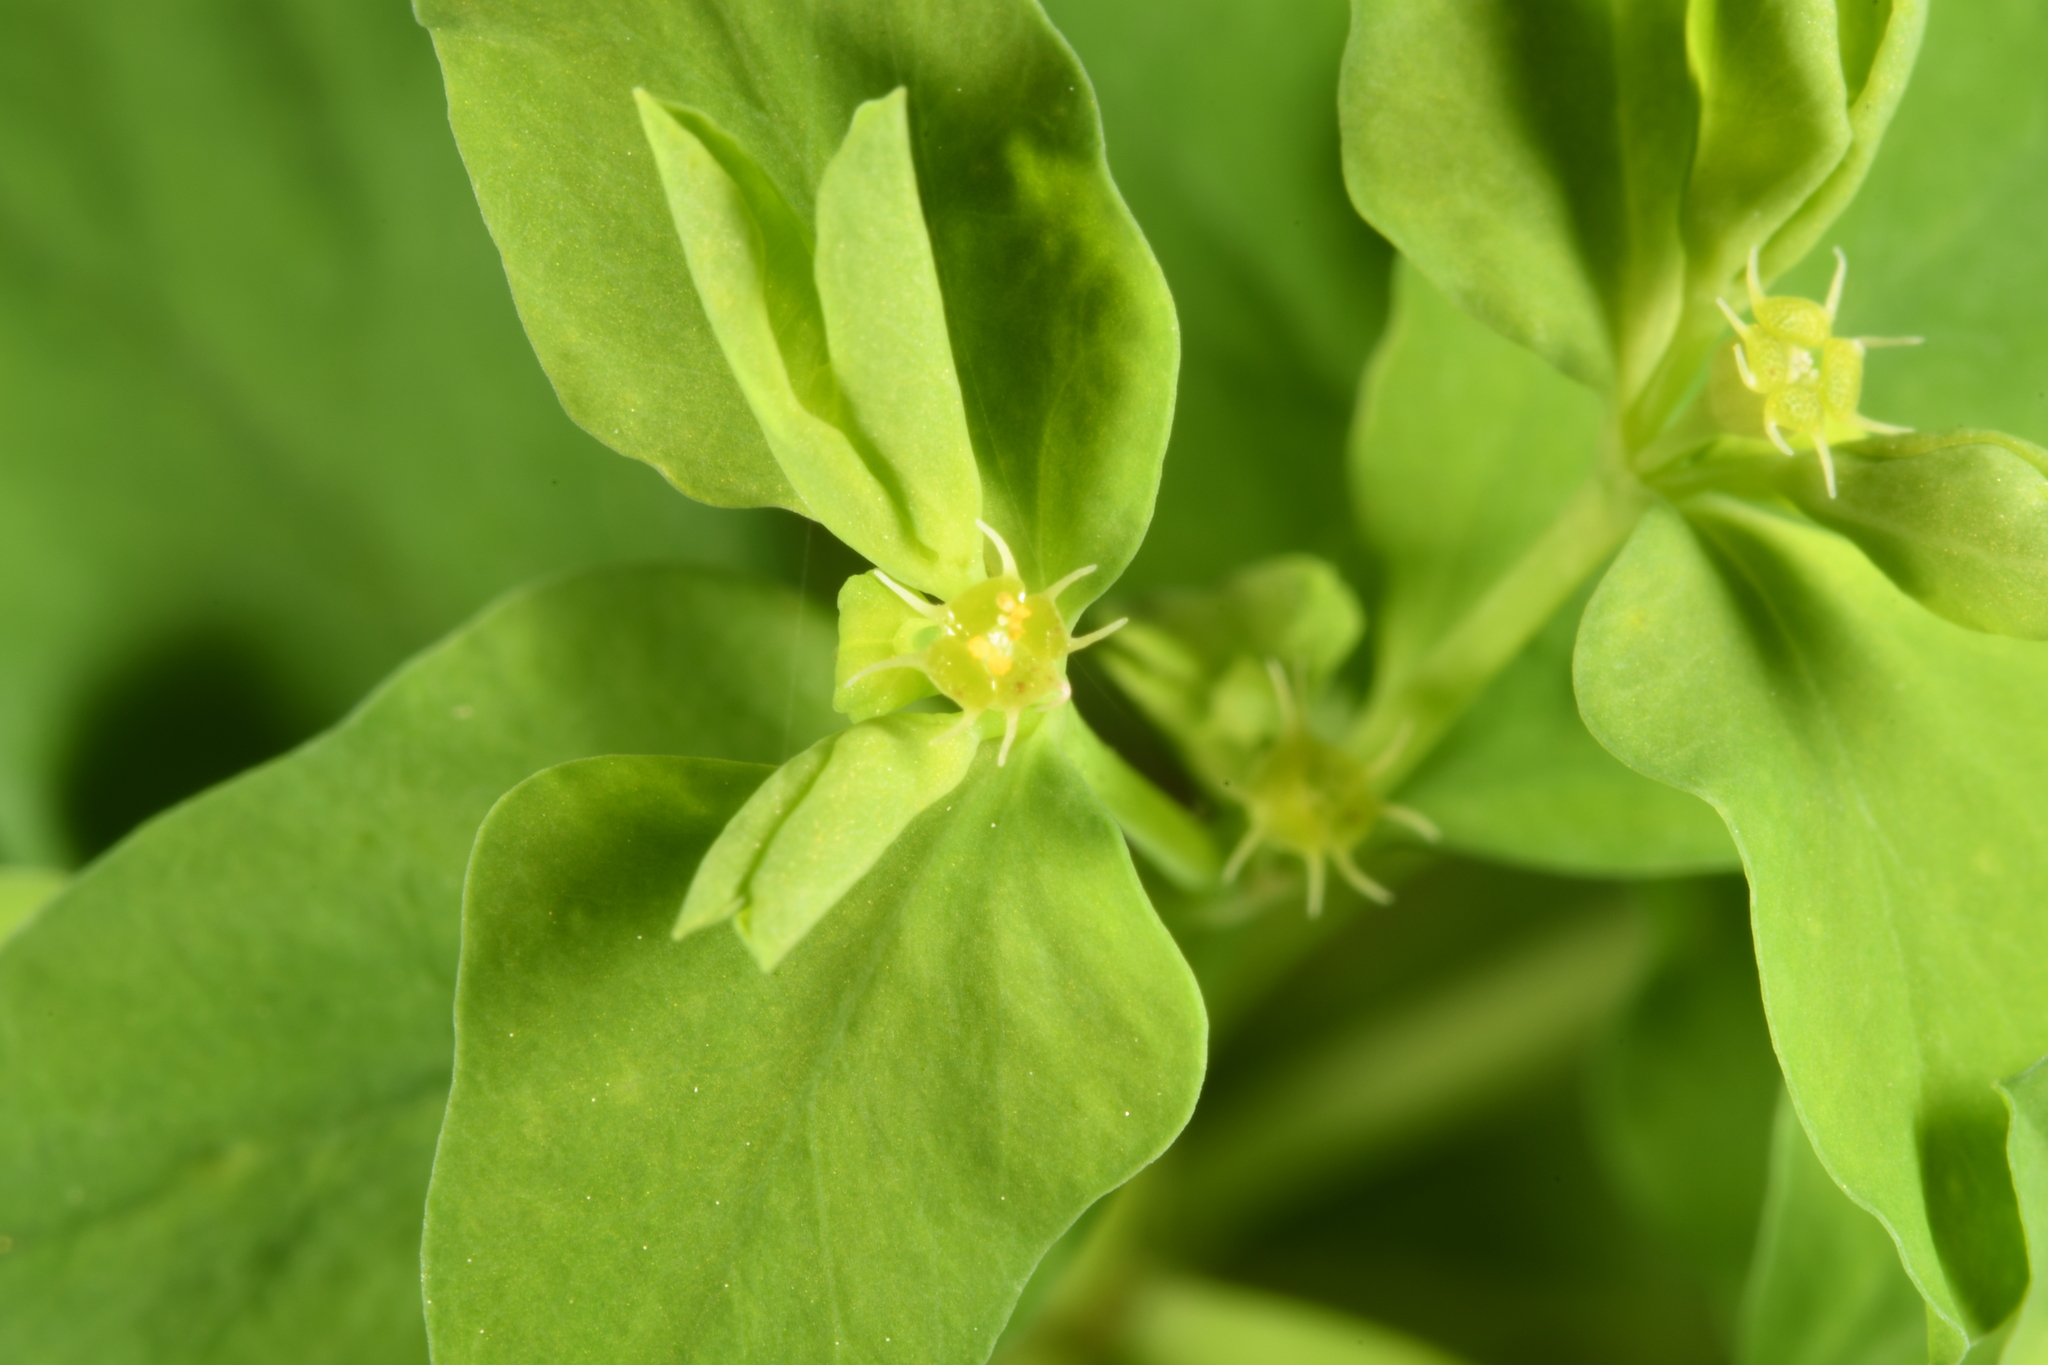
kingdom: Plantae
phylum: Tracheophyta
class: Magnoliopsida
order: Malpighiales
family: Euphorbiaceae
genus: Euphorbia
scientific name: Euphorbia peplus
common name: Petty spurge
